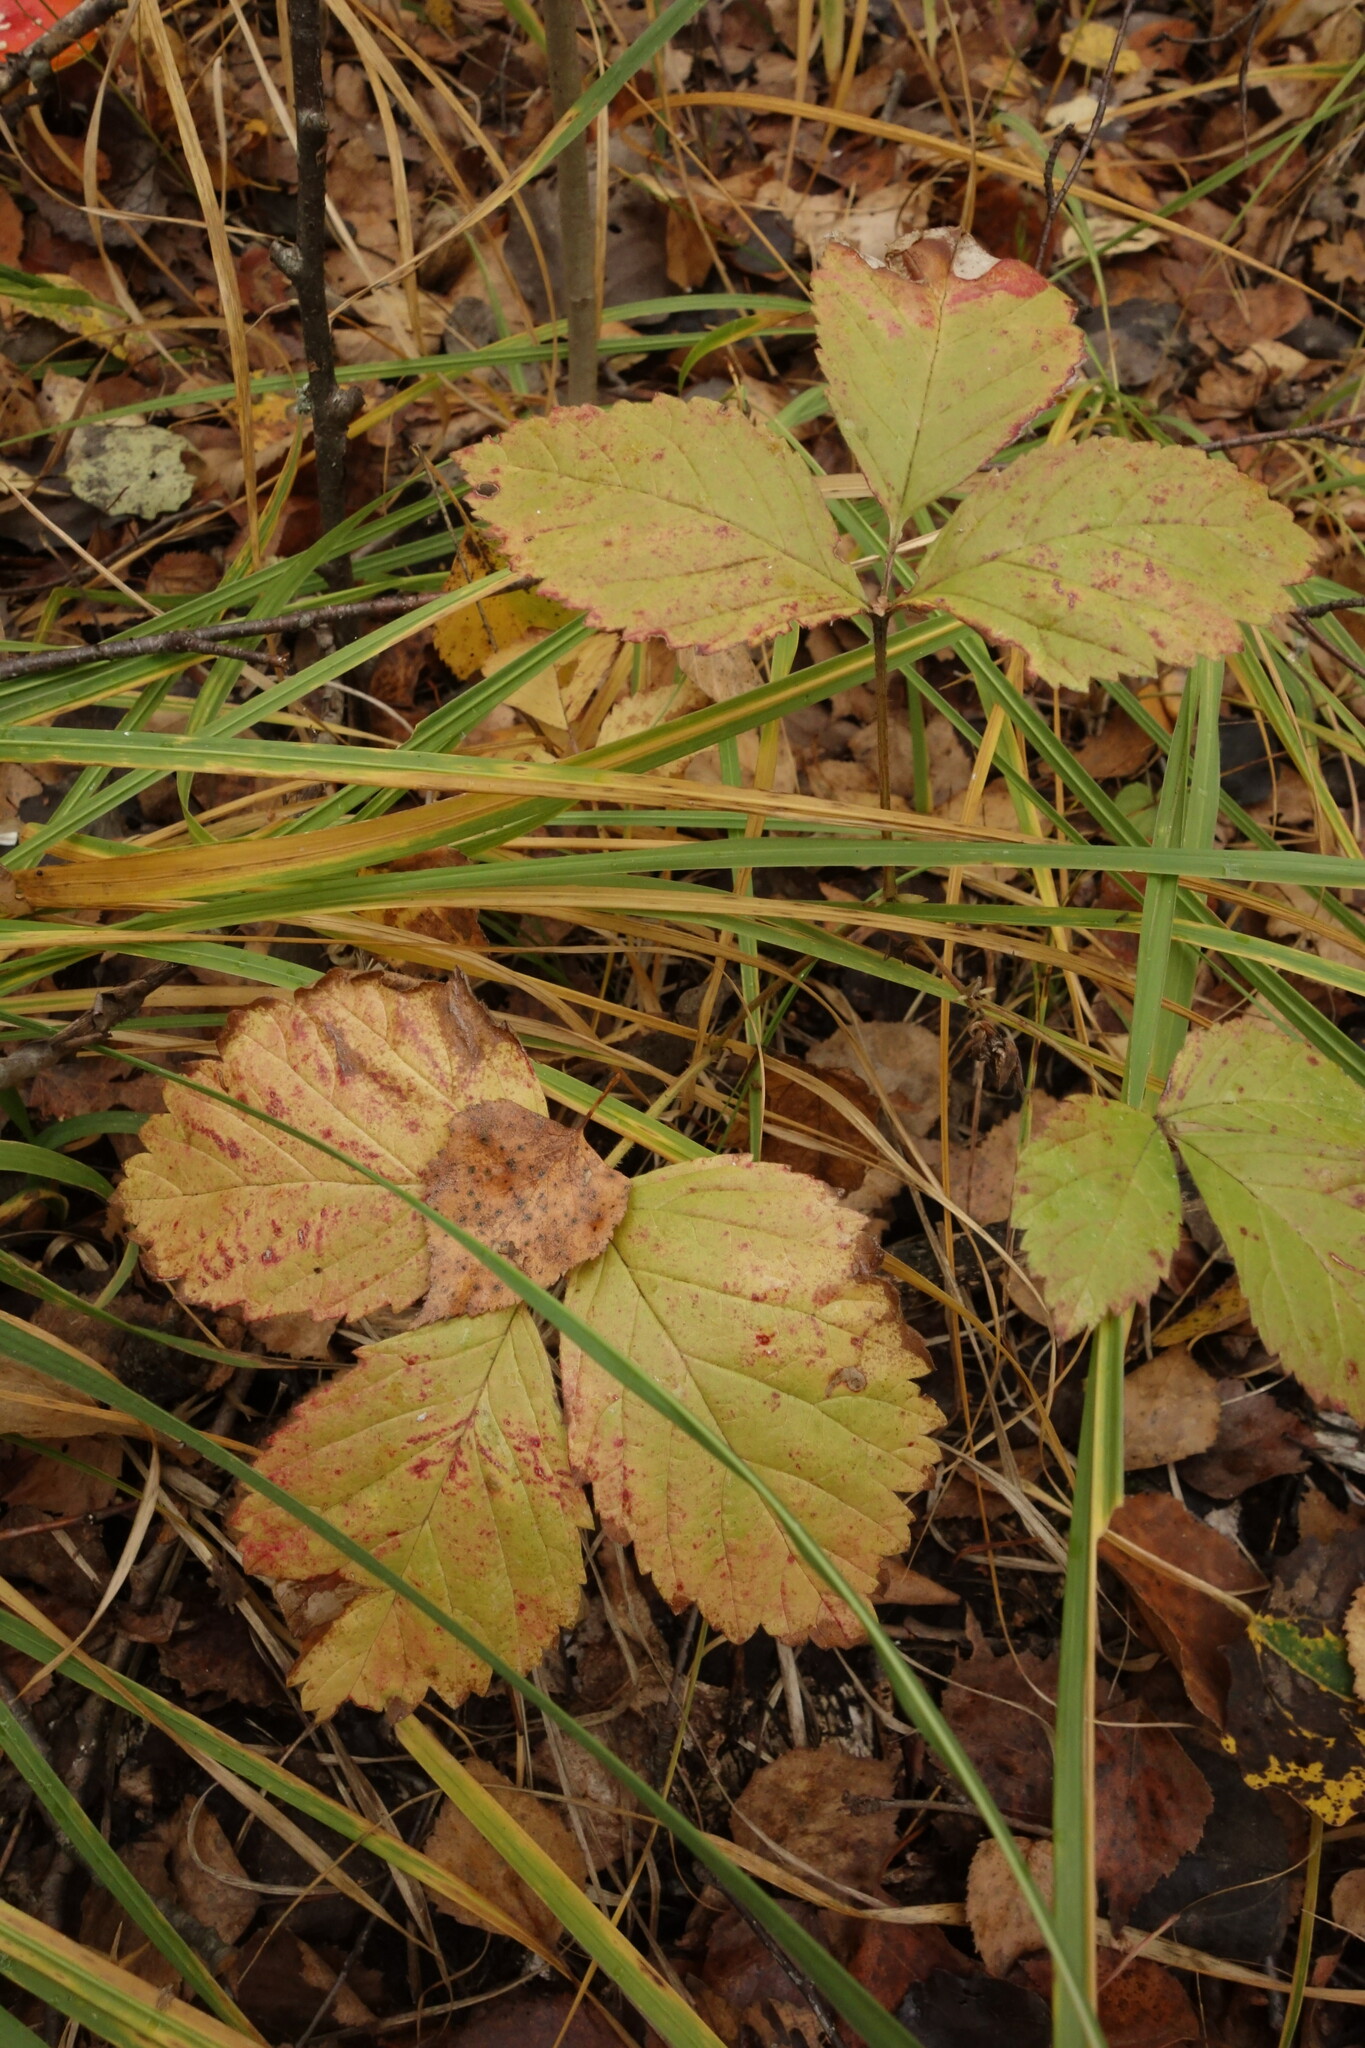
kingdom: Plantae
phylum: Tracheophyta
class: Magnoliopsida
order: Rosales
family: Rosaceae
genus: Rubus
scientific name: Rubus saxatilis
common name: Stone bramble
